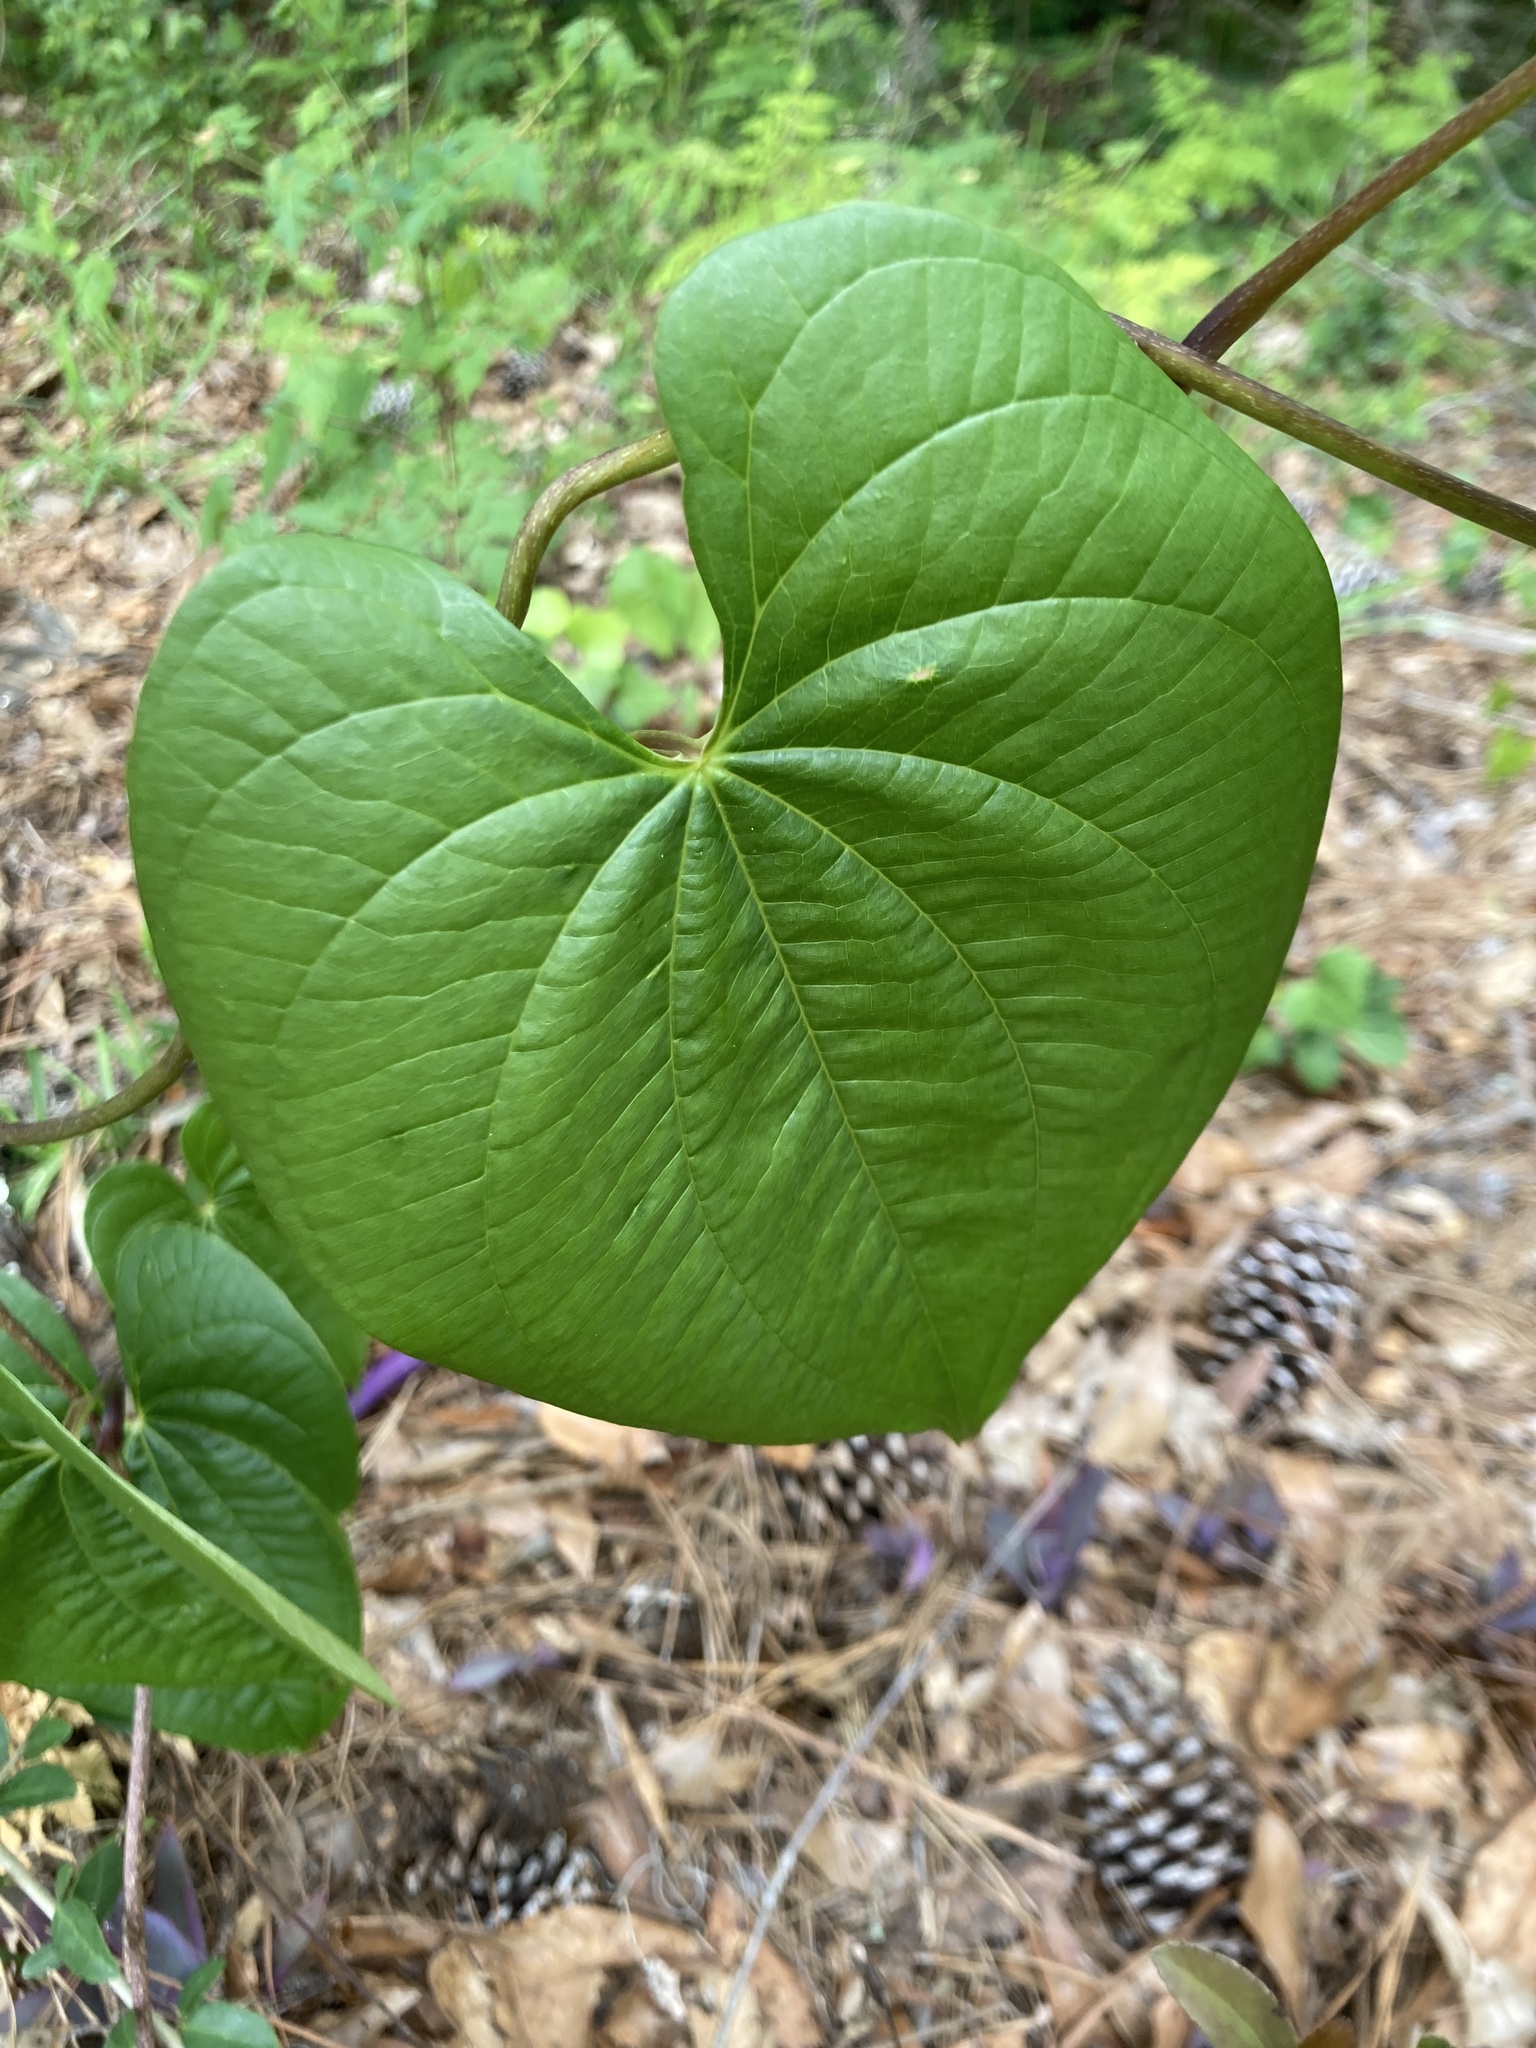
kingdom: Plantae
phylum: Tracheophyta
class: Liliopsida
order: Dioscoreales
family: Dioscoreaceae
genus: Dioscorea
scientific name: Dioscorea bulbifera
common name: Air yam
